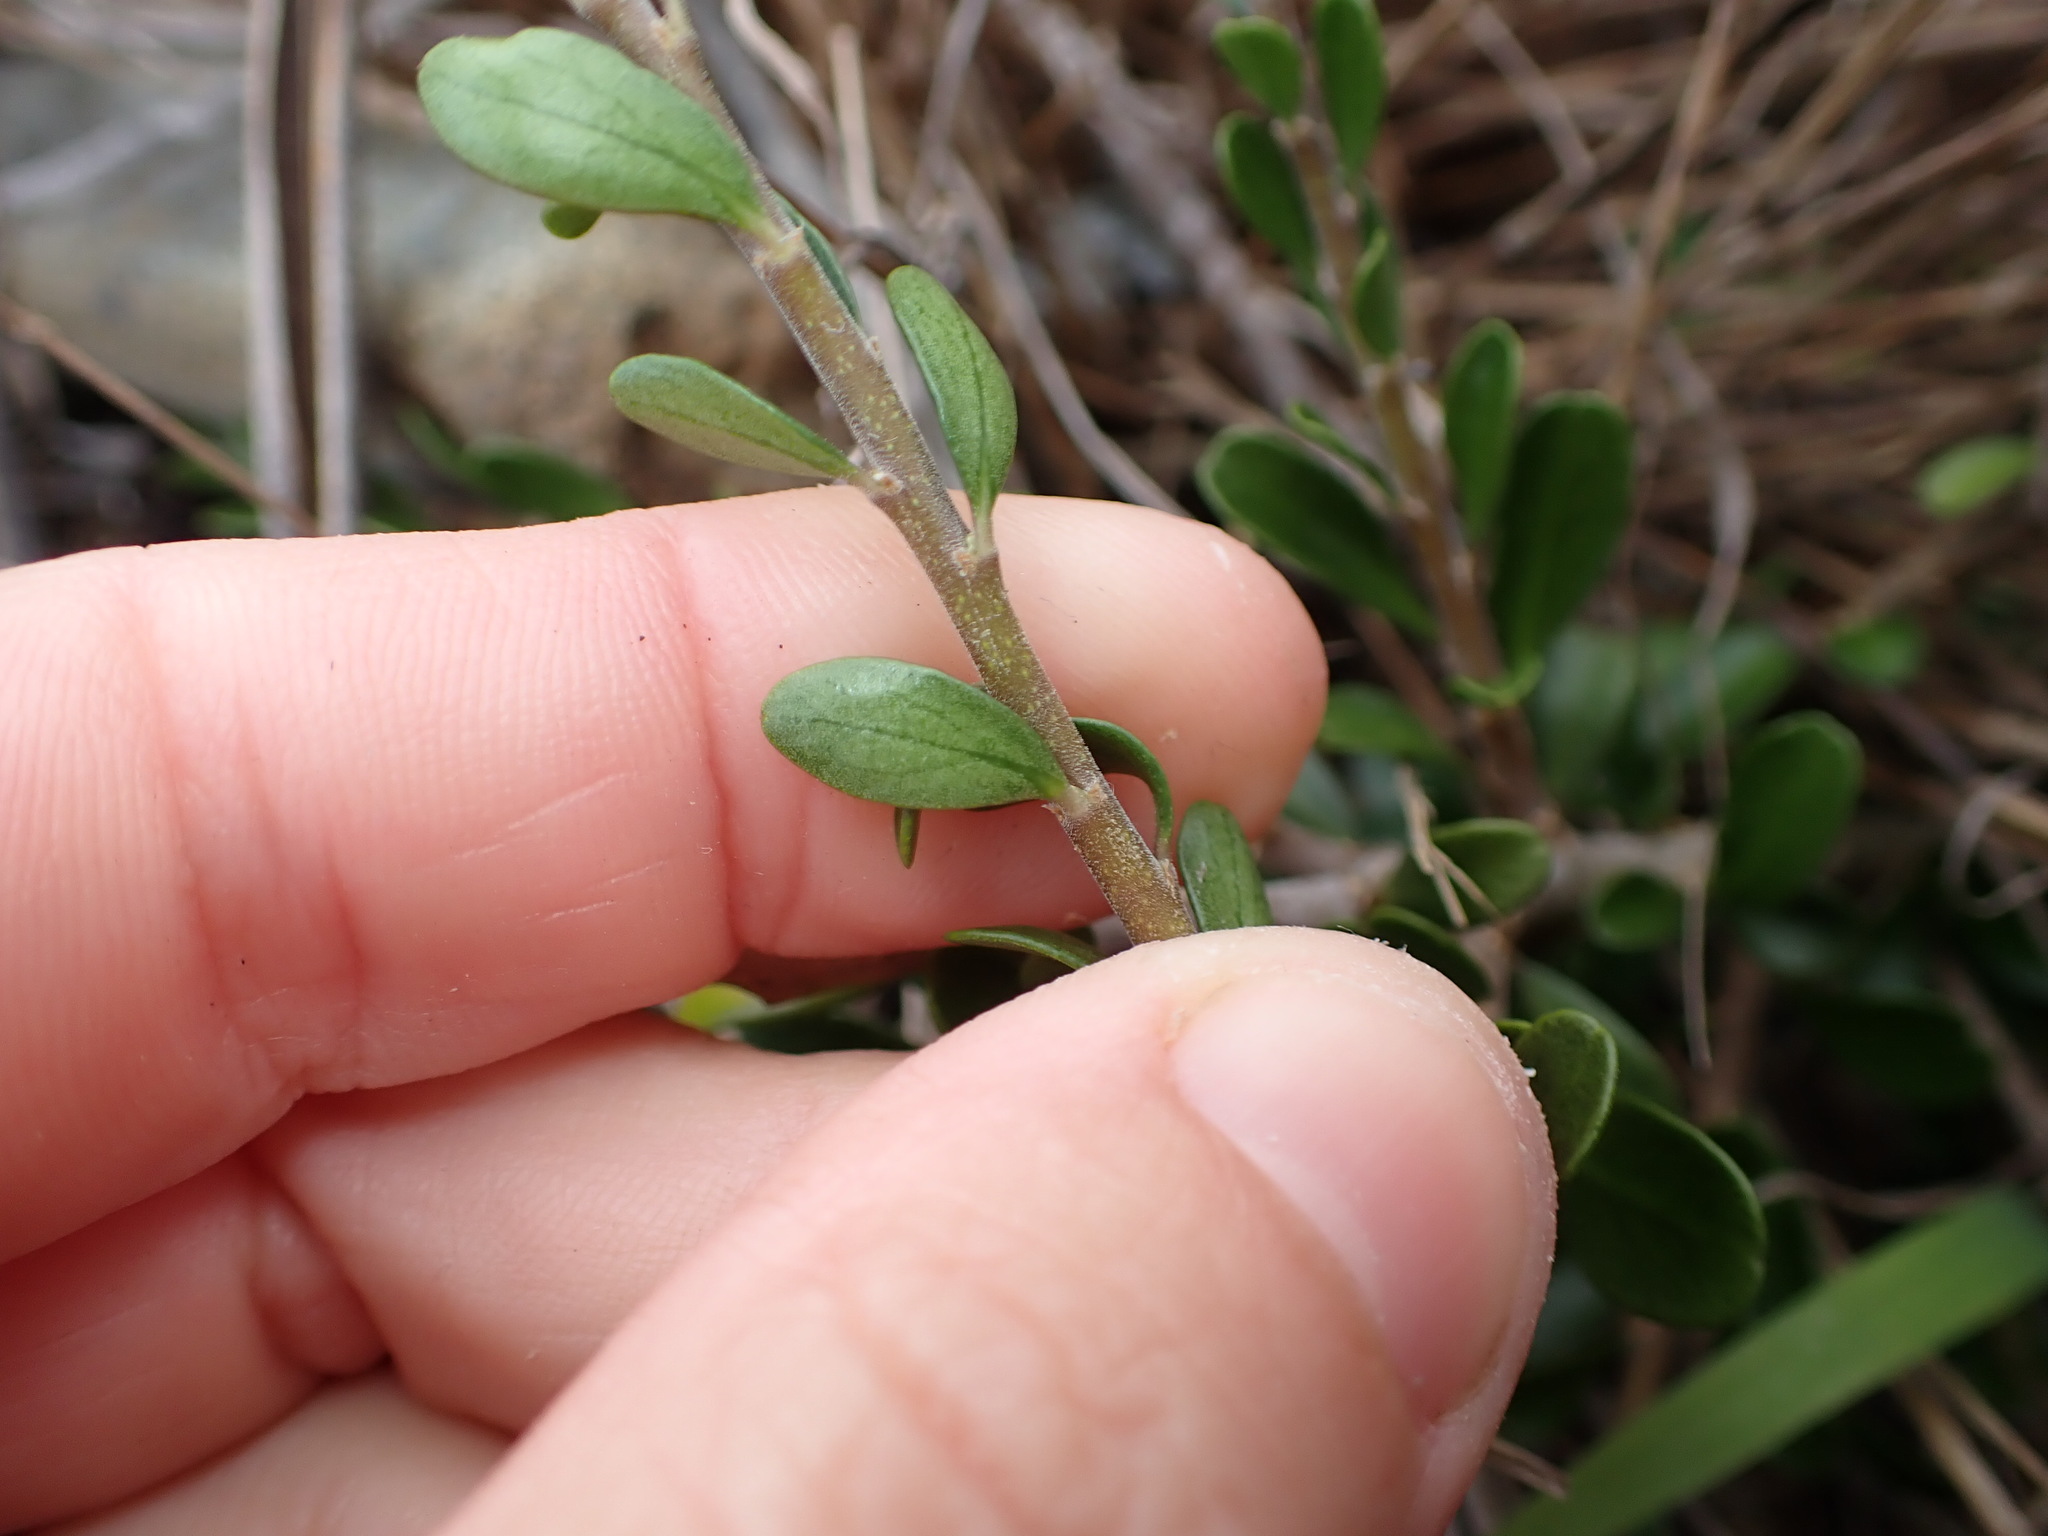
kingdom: Plantae
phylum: Tracheophyta
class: Magnoliopsida
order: Malpighiales
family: Violaceae
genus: Melicytus
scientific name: Melicytus crassifolius
